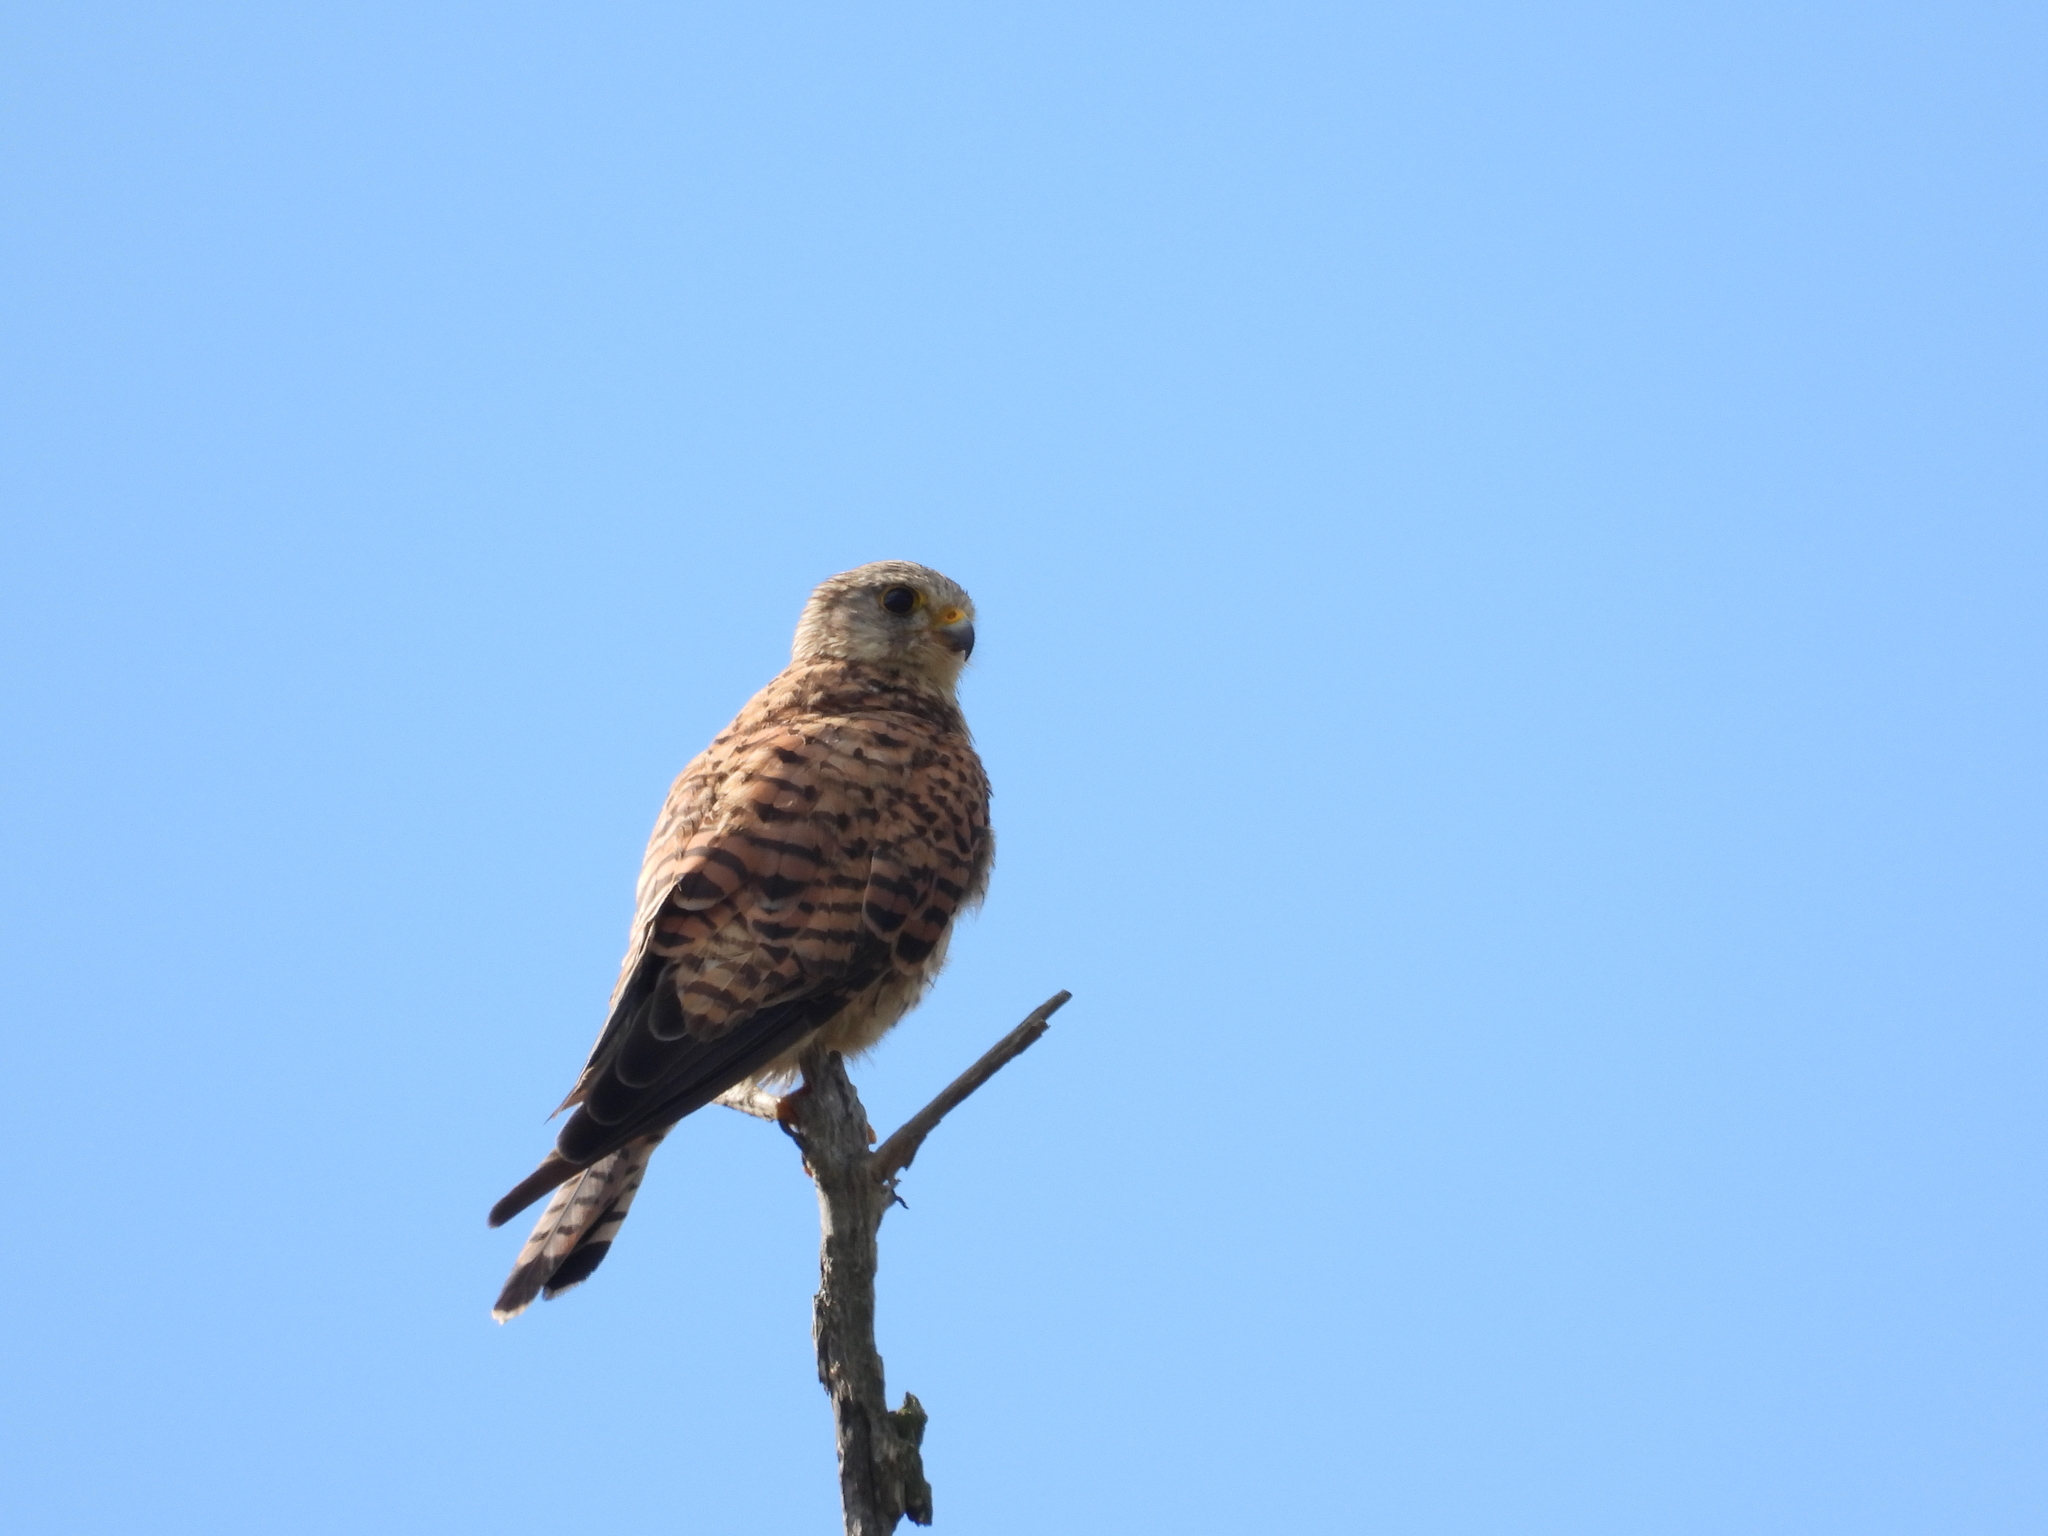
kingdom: Animalia
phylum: Chordata
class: Aves
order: Falconiformes
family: Falconidae
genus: Falco
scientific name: Falco tinnunculus
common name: Common kestrel
